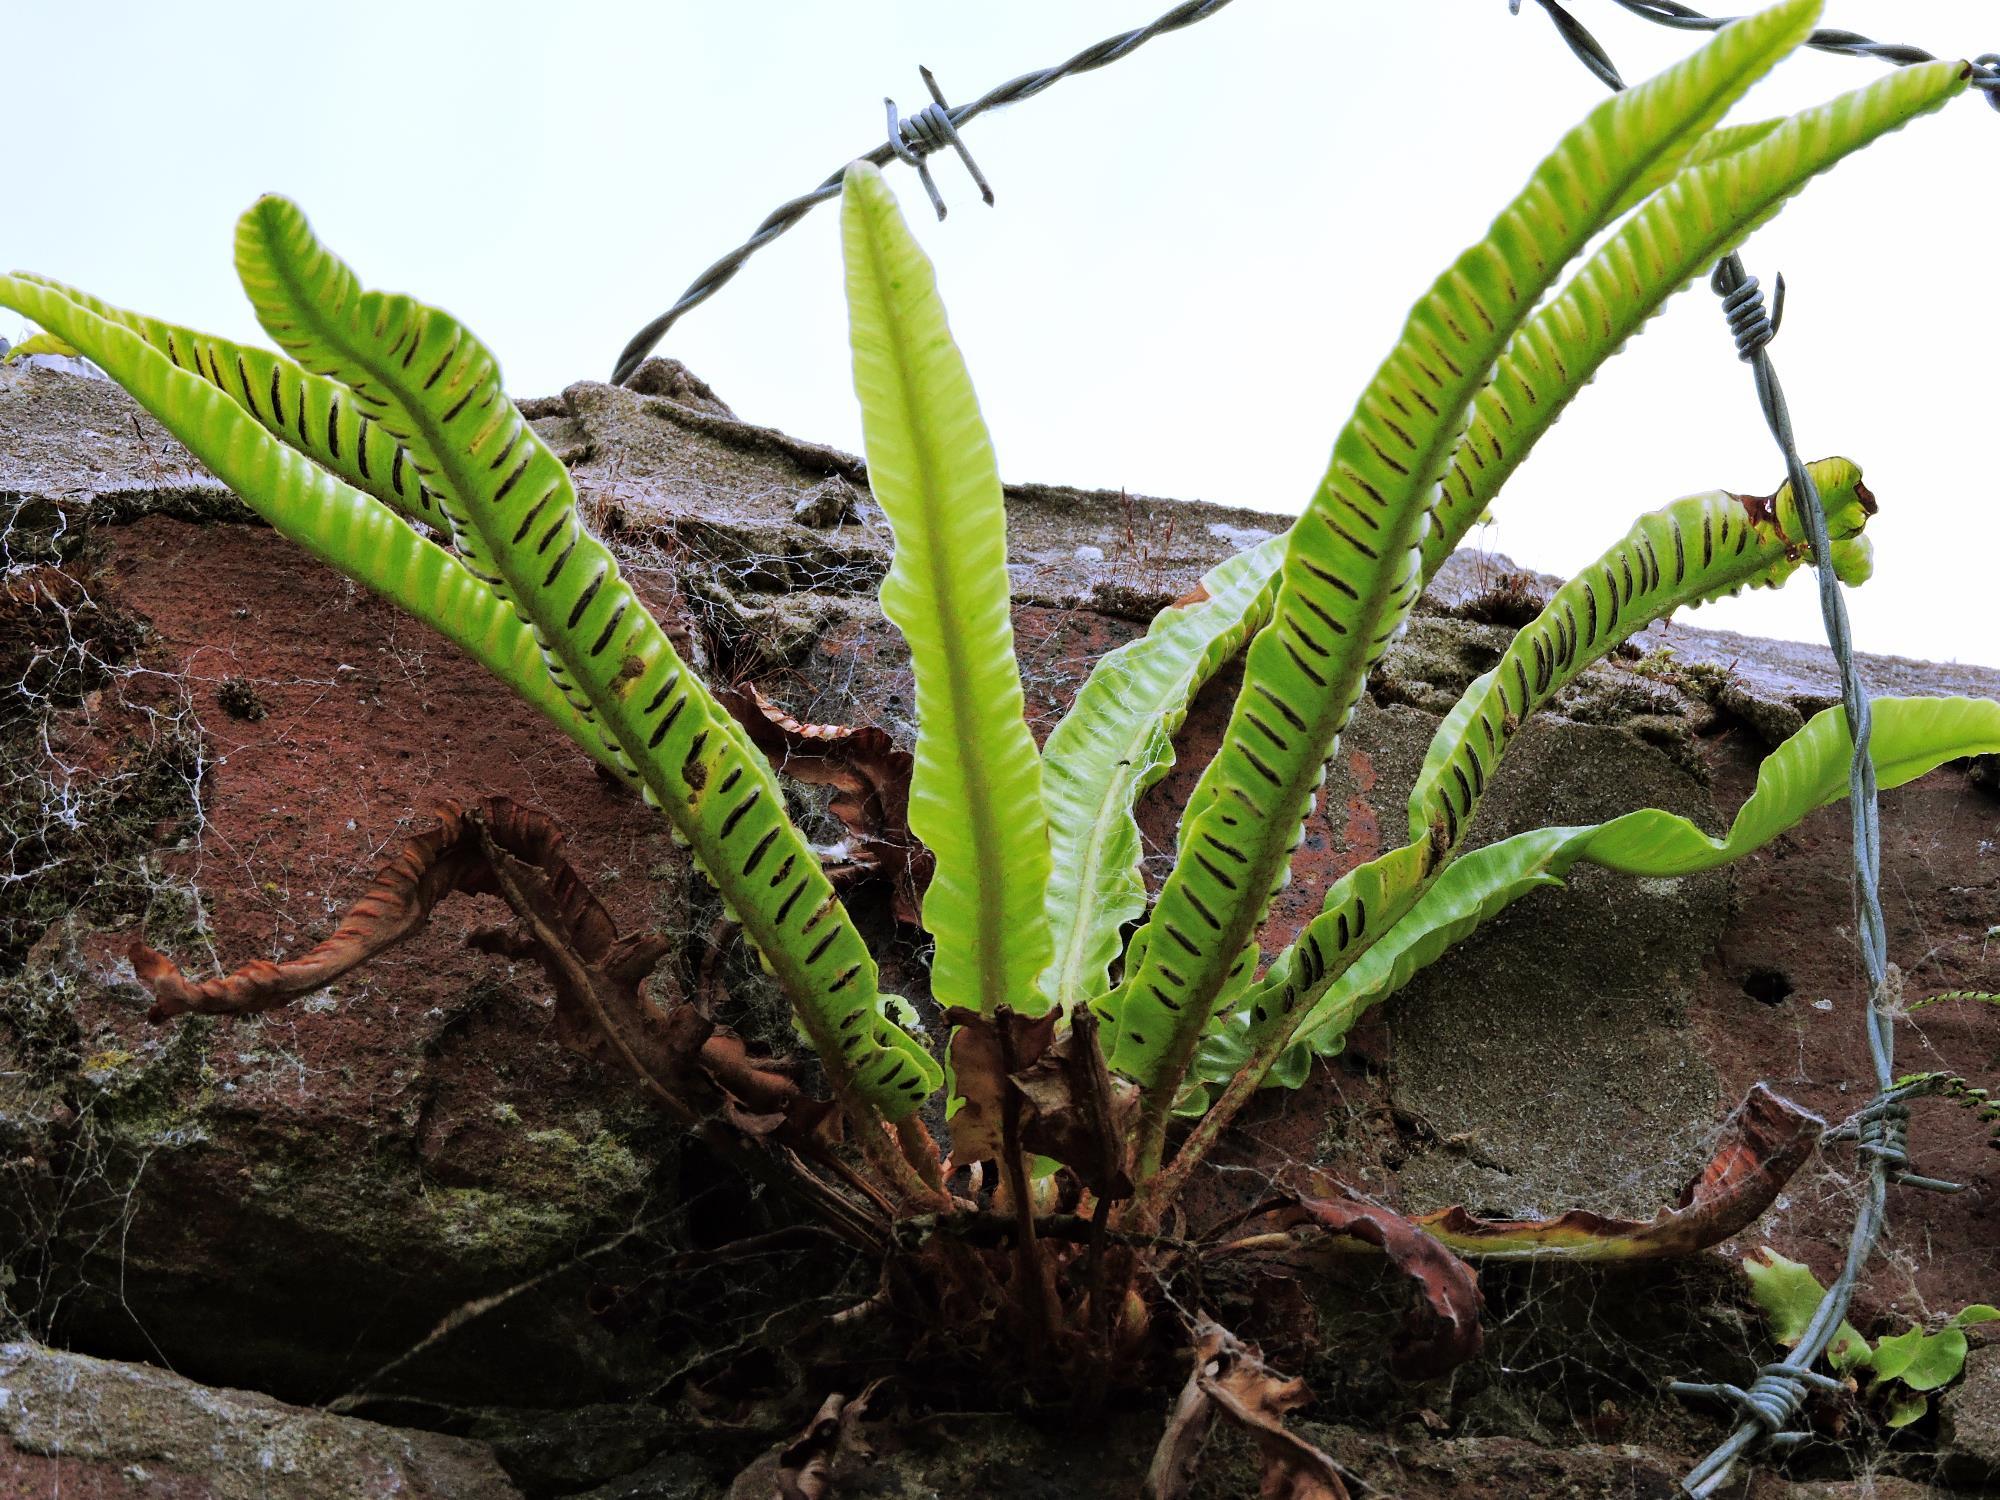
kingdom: Plantae
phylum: Tracheophyta
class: Polypodiopsida
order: Polypodiales
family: Aspleniaceae
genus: Asplenium
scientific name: Asplenium scolopendrium
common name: Hart's-tongue fern
